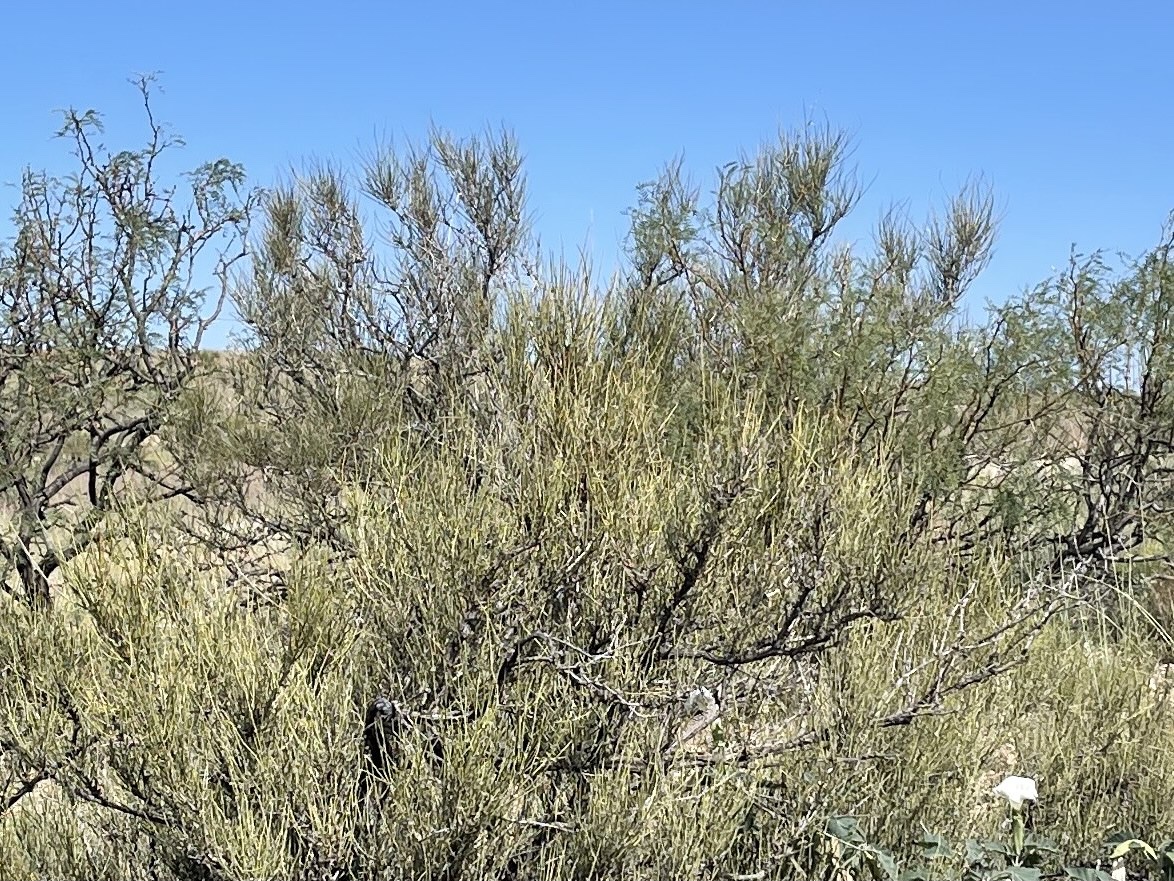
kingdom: Plantae
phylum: Tracheophyta
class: Gnetopsida
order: Ephedrales
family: Ephedraceae
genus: Ephedra
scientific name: Ephedra trifurca
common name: Mexican-tea
